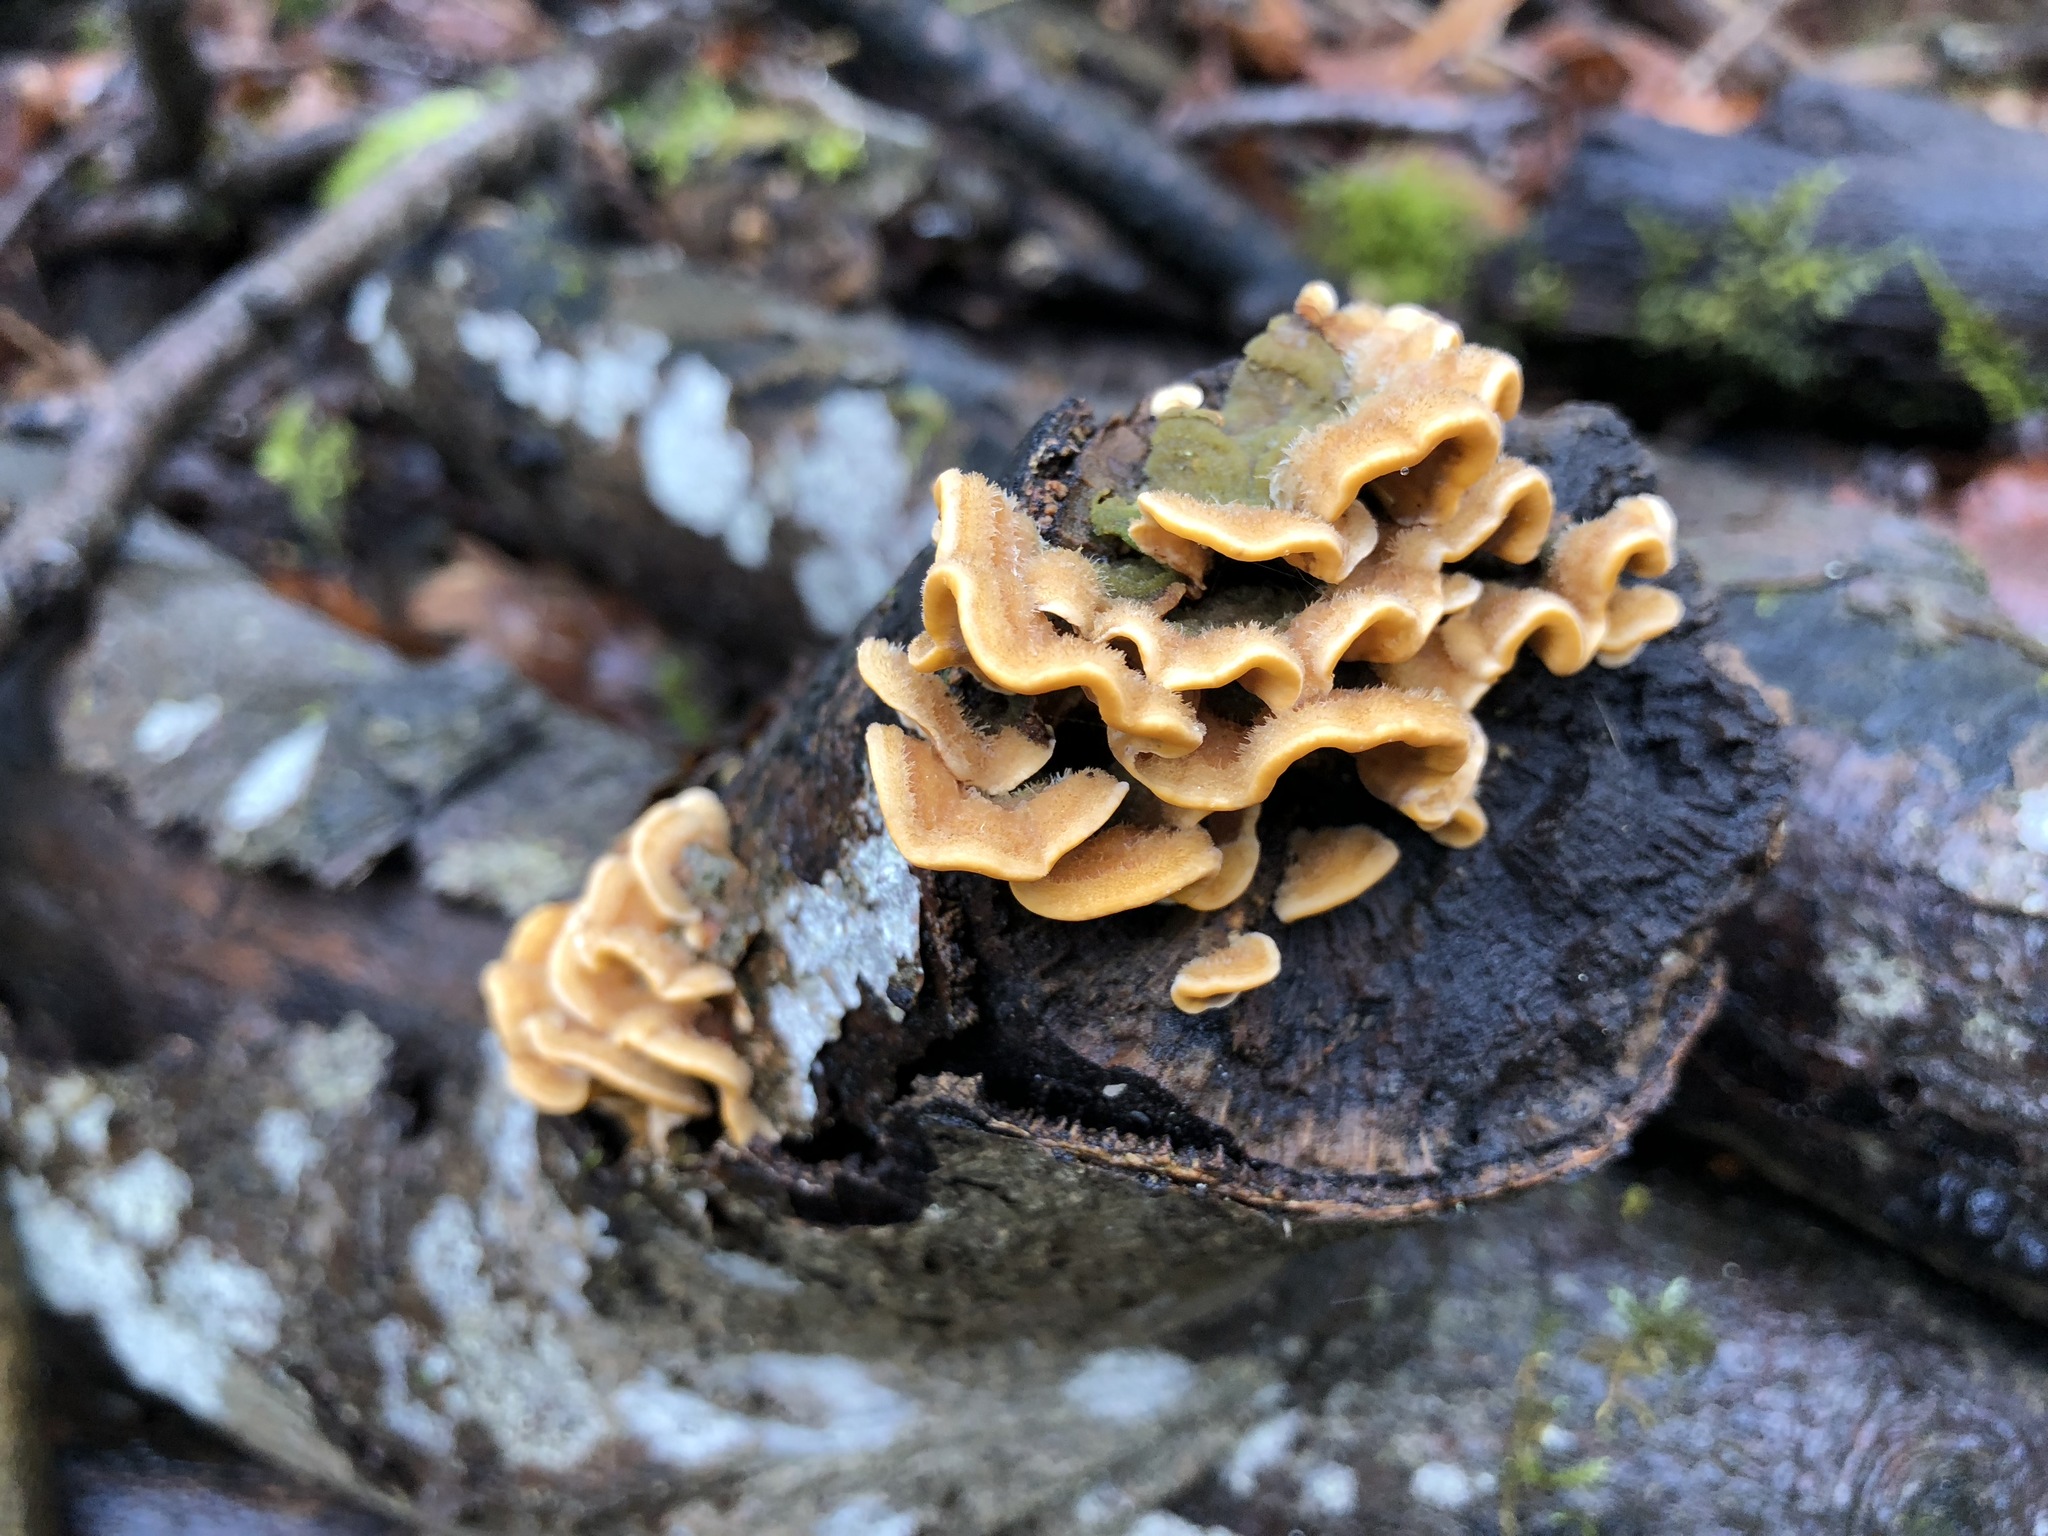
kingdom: Fungi
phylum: Basidiomycota
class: Agaricomycetes
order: Russulales
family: Stereaceae
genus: Stereum
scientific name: Stereum hirsutum
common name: Hairy curtain crust
